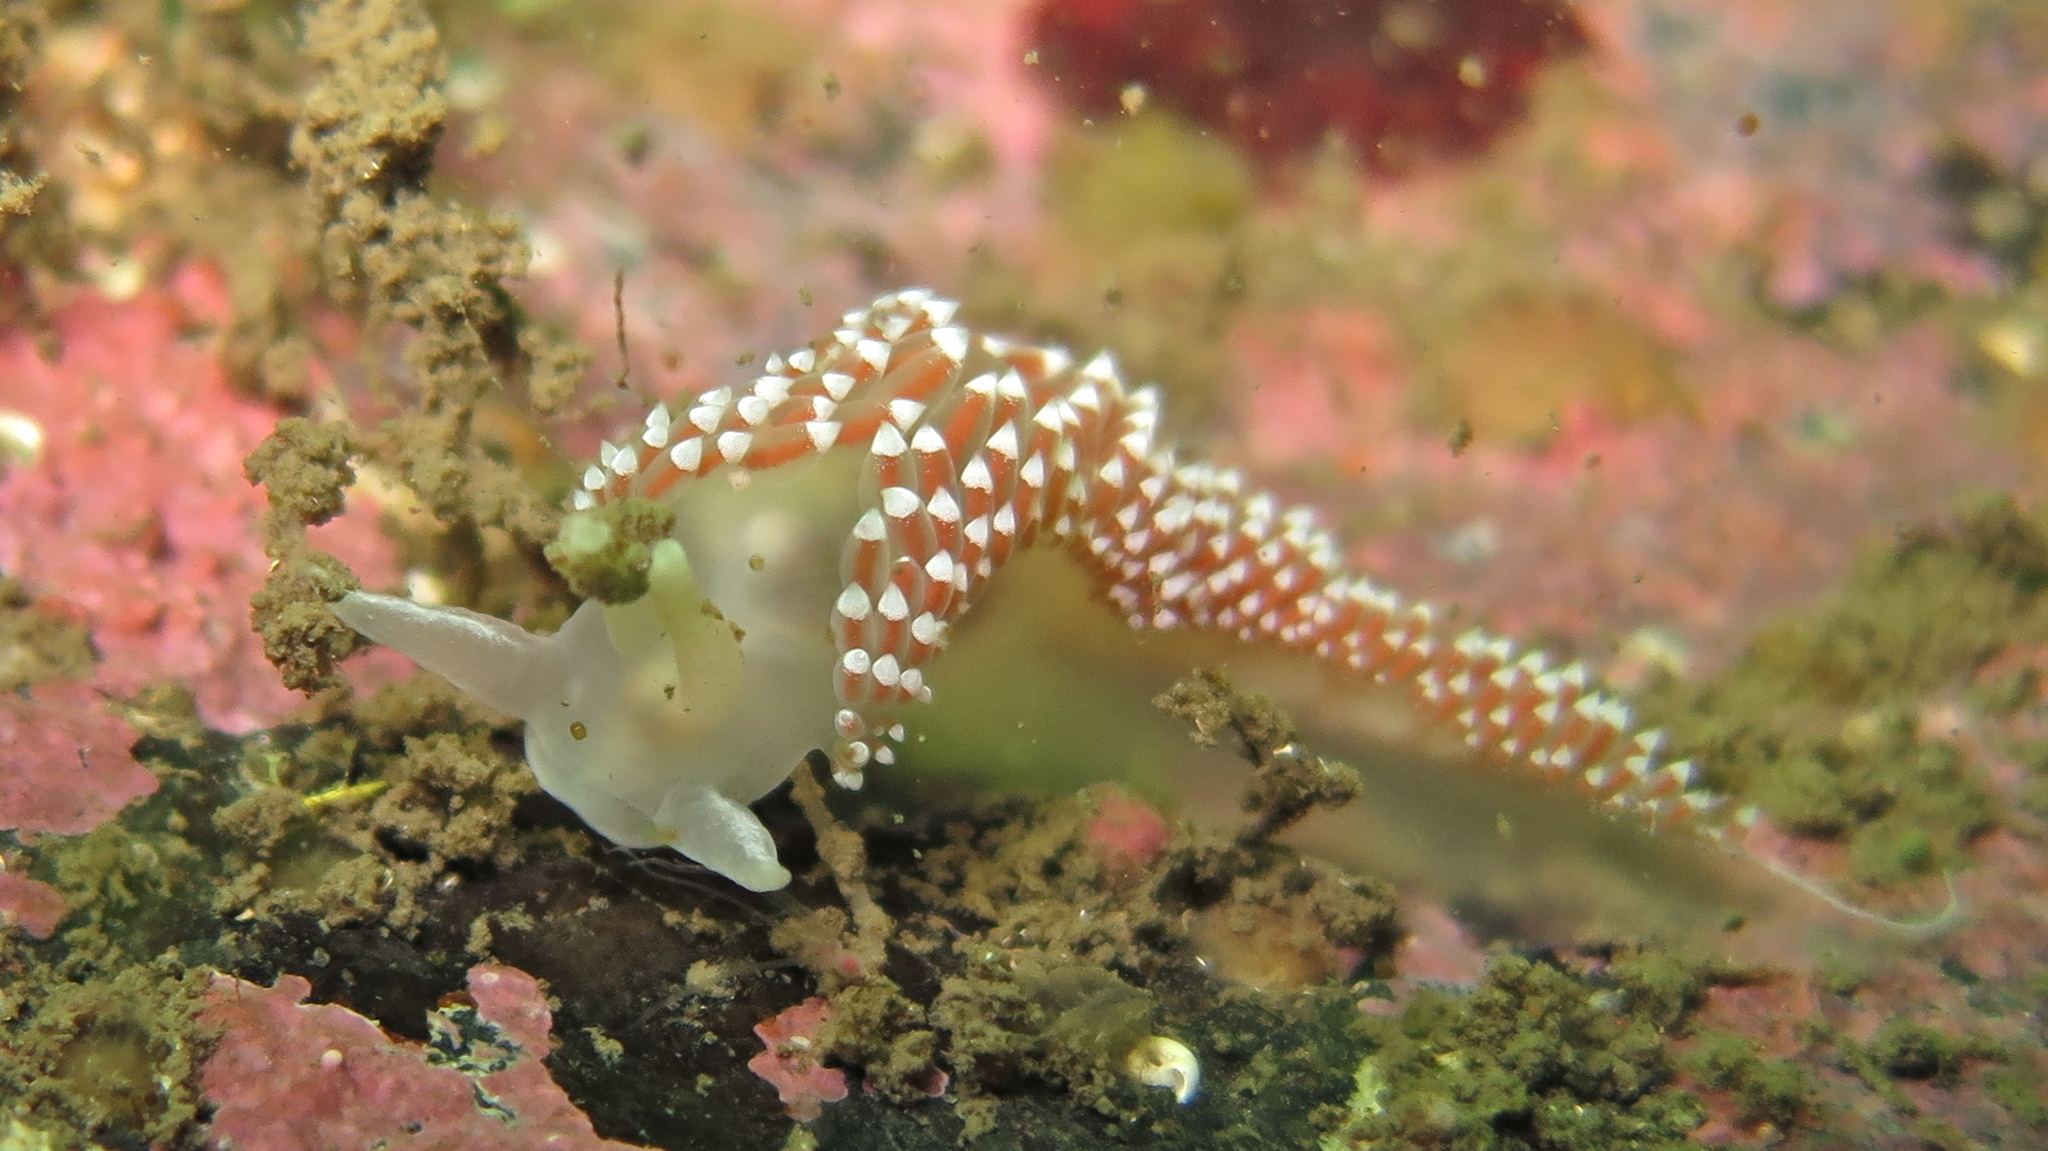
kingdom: Animalia
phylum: Mollusca
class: Gastropoda
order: Nudibranchia
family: Coryphellidae
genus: Coryphella
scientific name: Coryphella verrucosa
